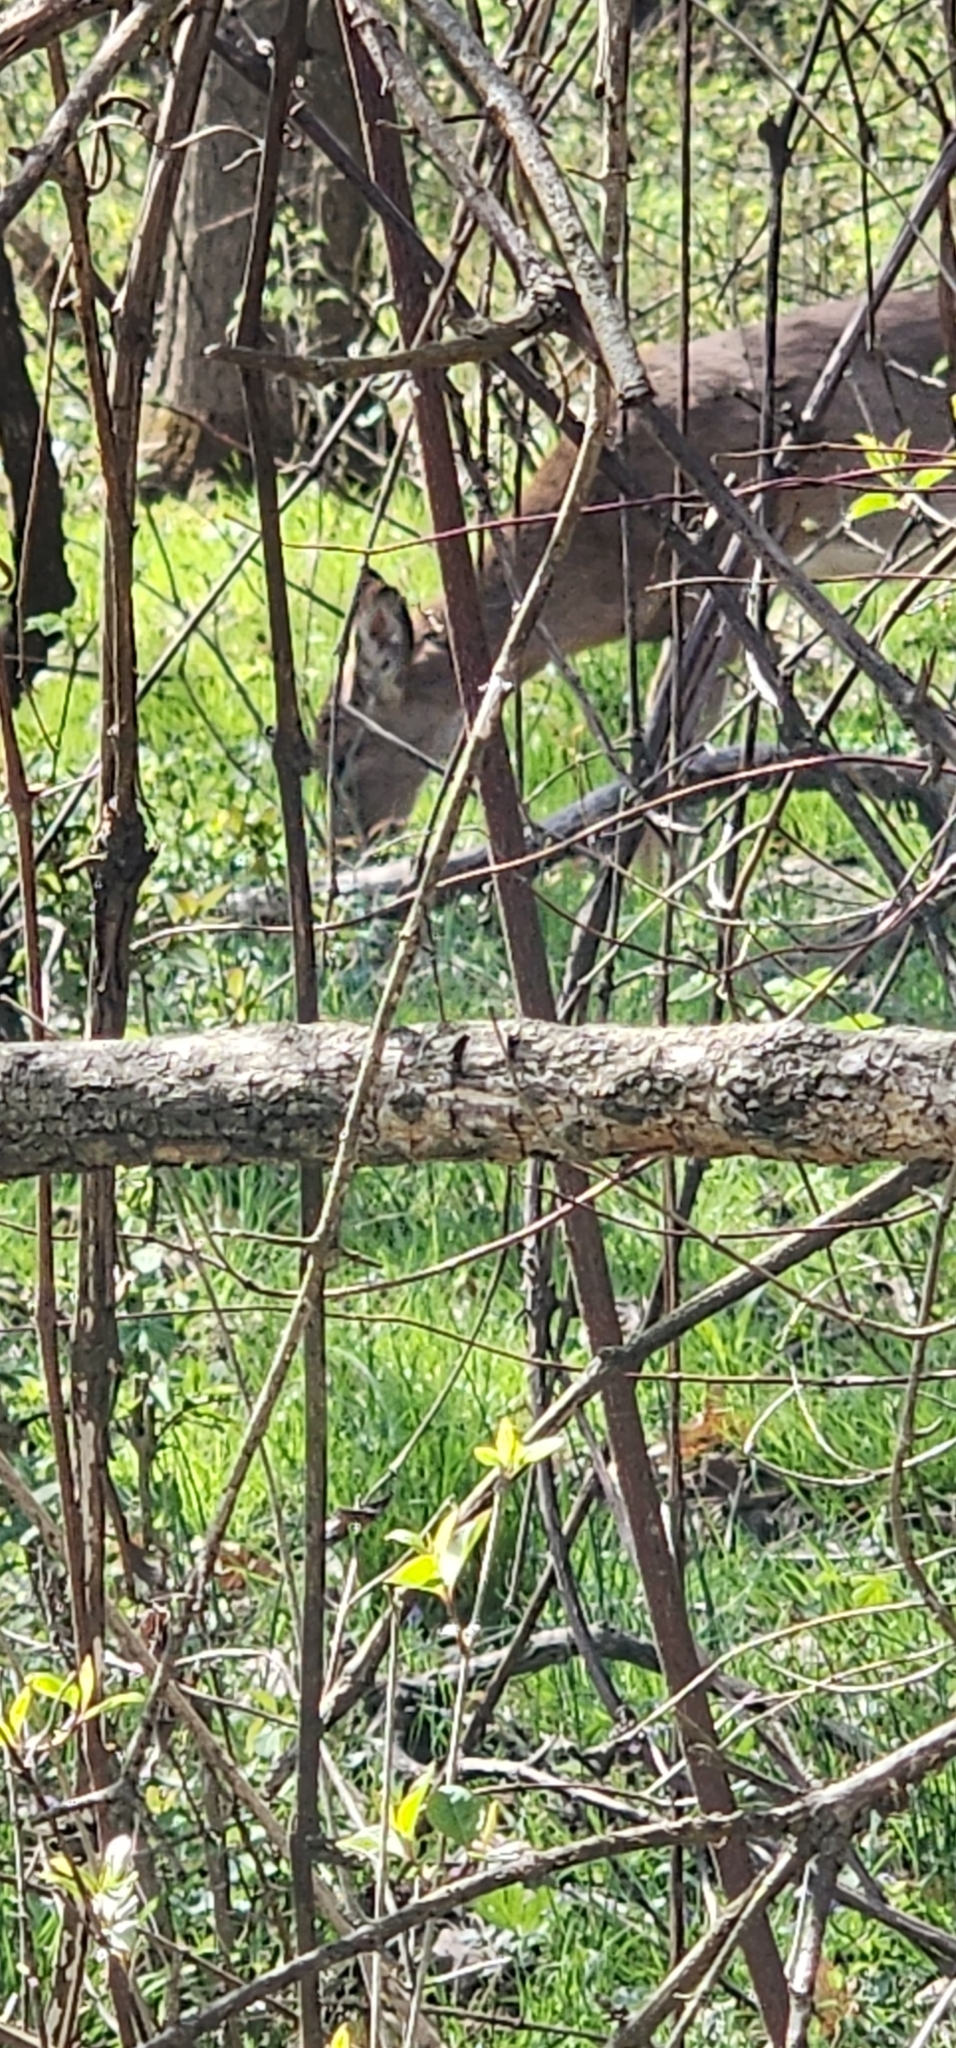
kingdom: Animalia
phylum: Chordata
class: Mammalia
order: Artiodactyla
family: Cervidae
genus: Odocoileus
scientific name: Odocoileus virginianus
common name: White-tailed deer
